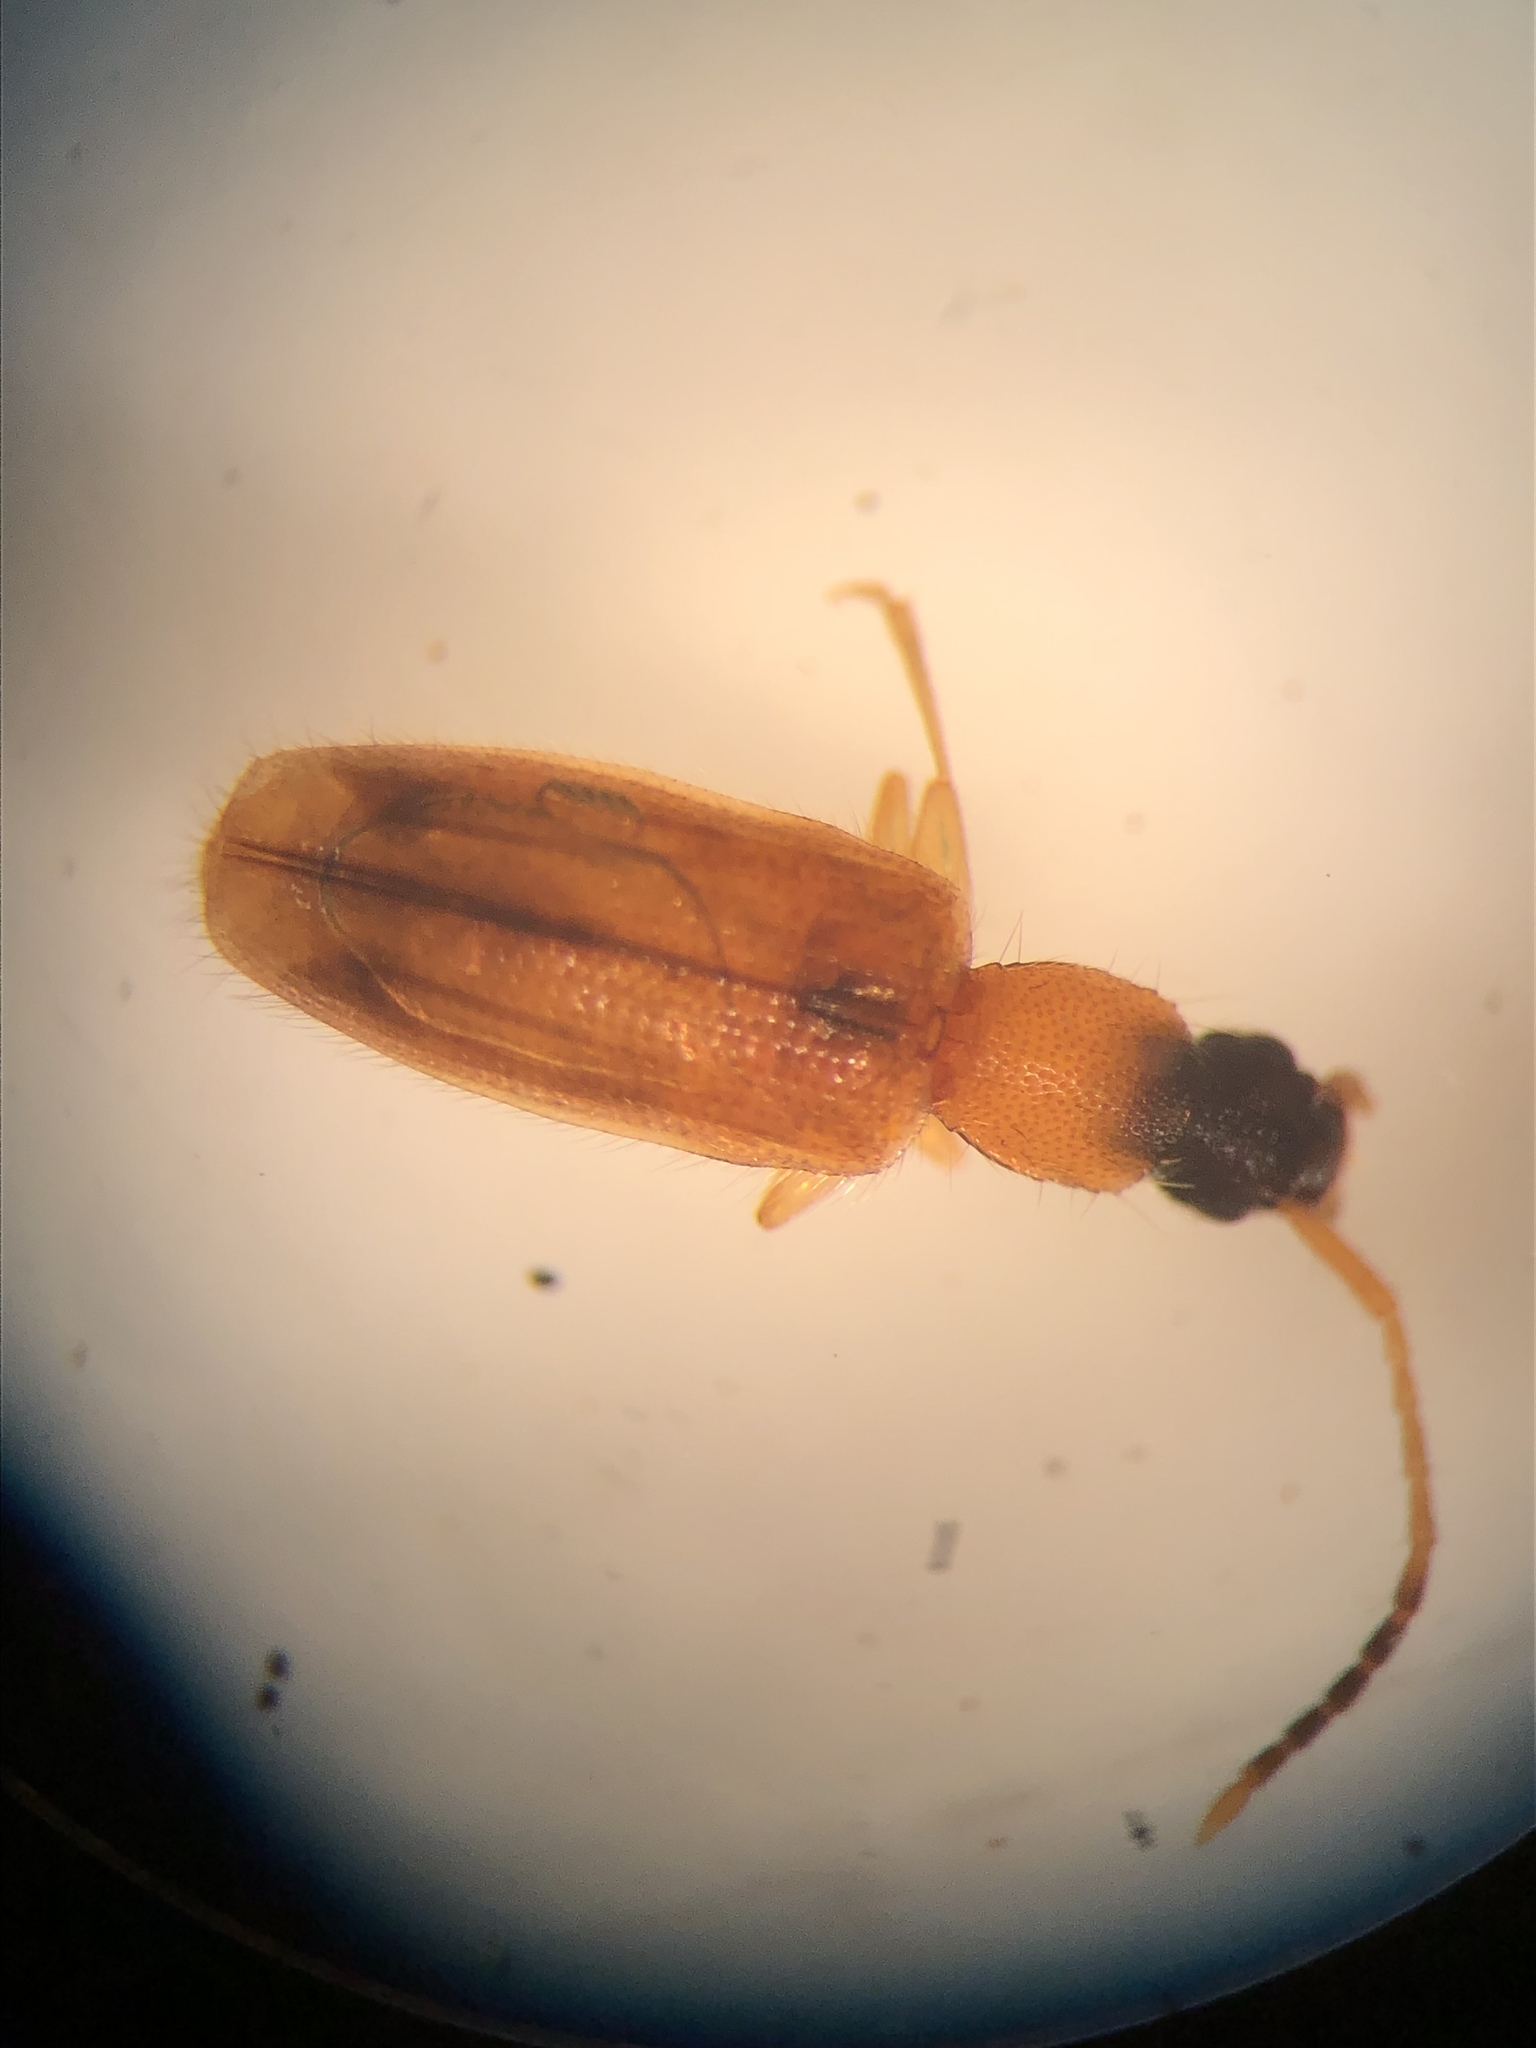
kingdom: Animalia
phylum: Arthropoda
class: Insecta
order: Coleoptera
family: Silvanidae
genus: Telephanus
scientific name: Telephanus velox
